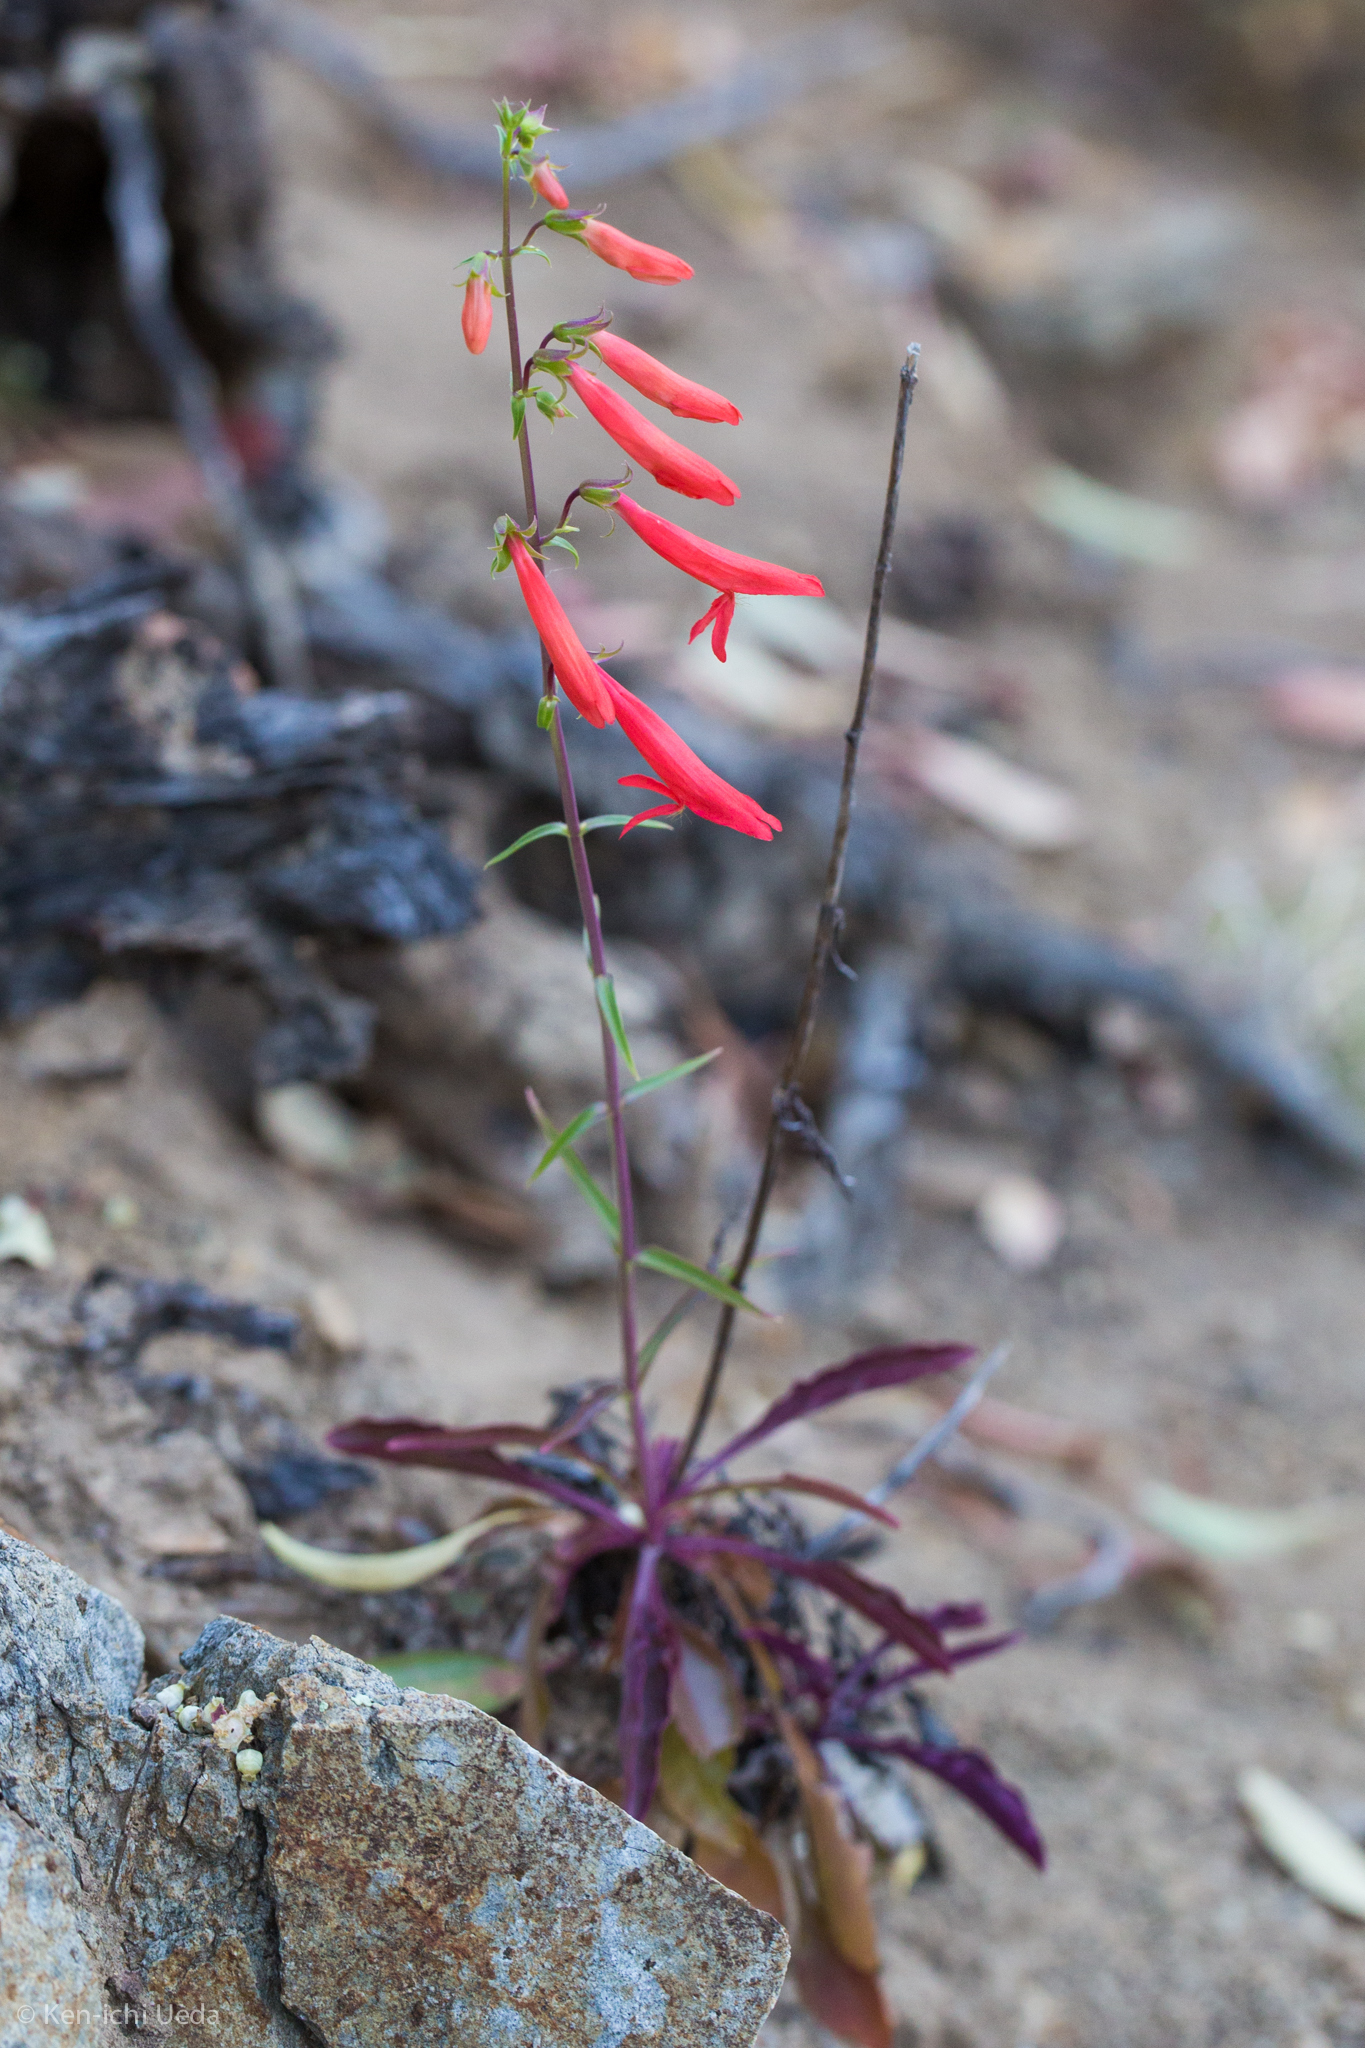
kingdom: Plantae
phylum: Tracheophyta
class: Magnoliopsida
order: Lamiales
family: Plantaginaceae
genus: Penstemon
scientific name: Penstemon barbatus
